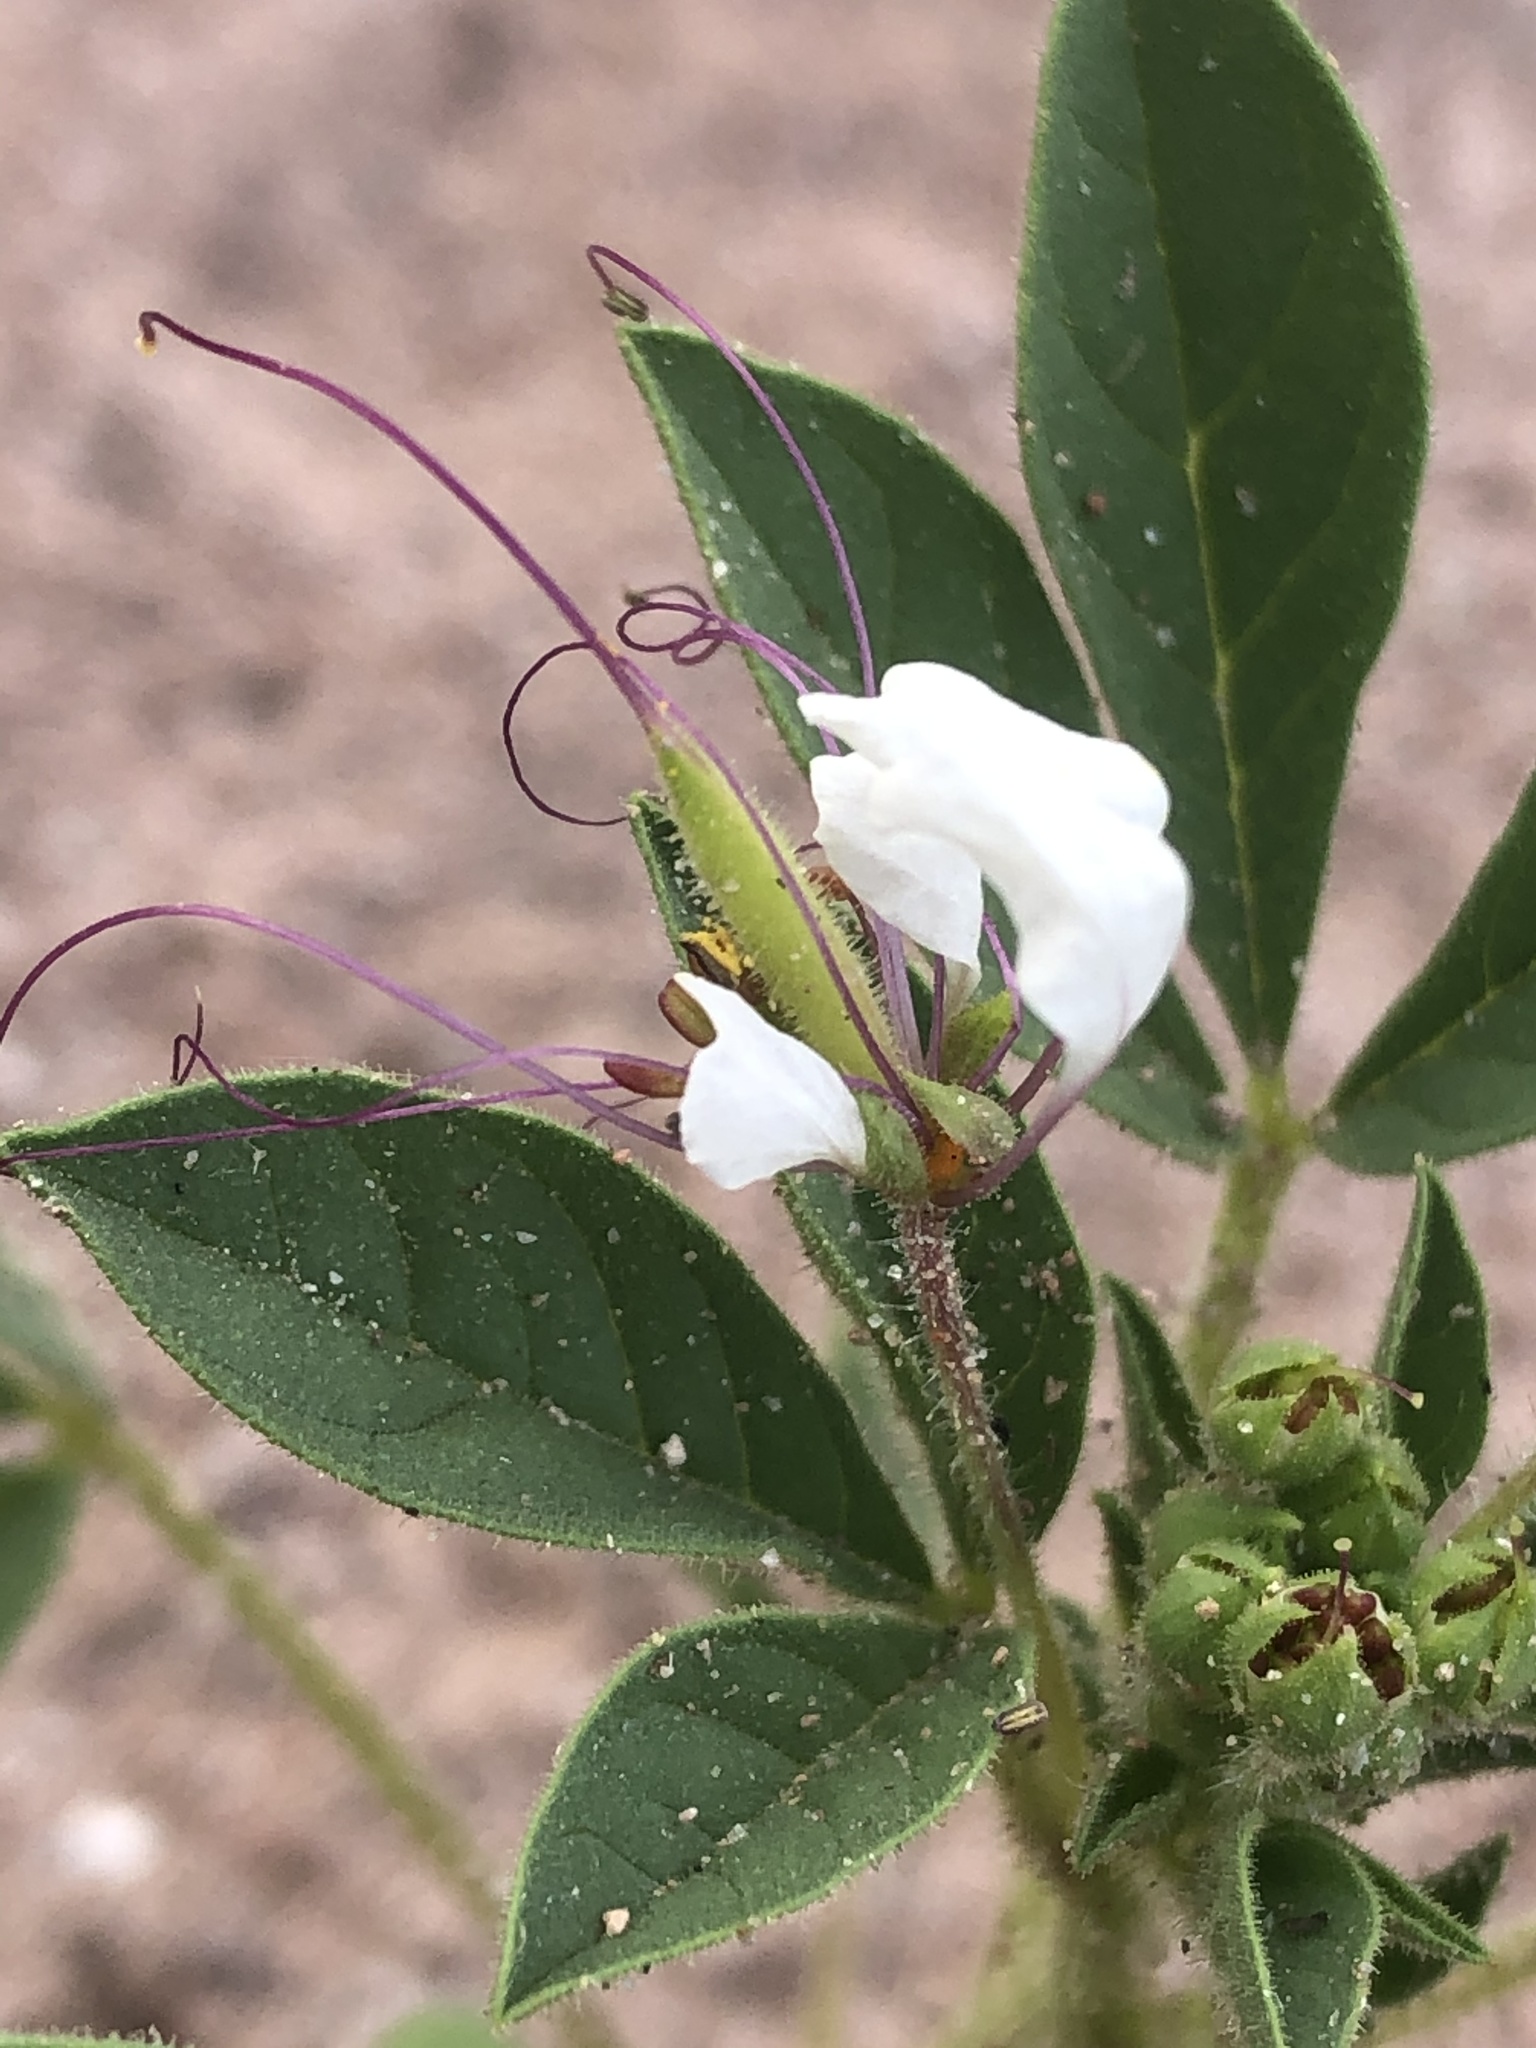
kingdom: Plantae
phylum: Tracheophyta
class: Magnoliopsida
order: Brassicales
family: Cleomaceae
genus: Polanisia
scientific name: Polanisia dodecandra
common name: Clammyweed
